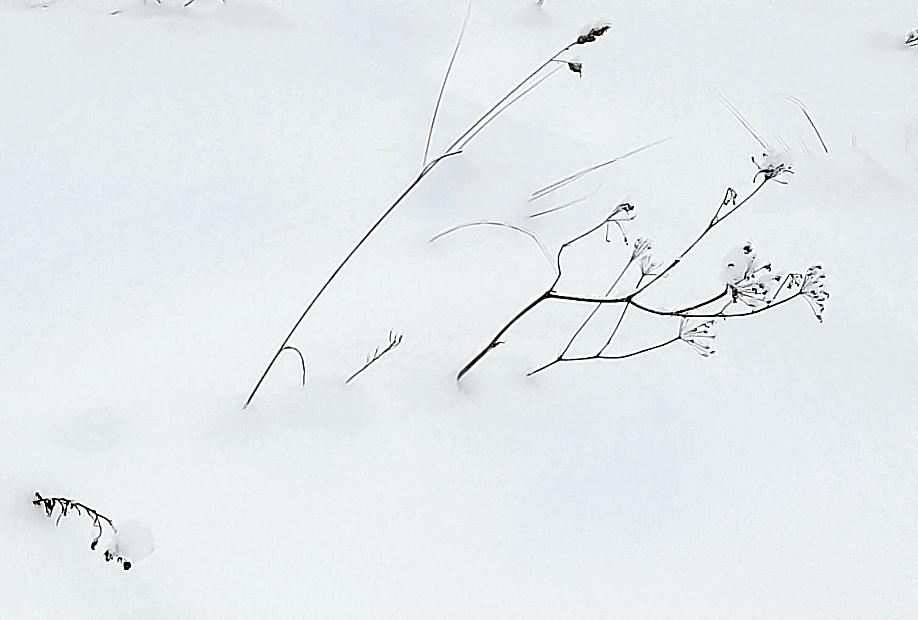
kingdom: Plantae
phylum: Tracheophyta
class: Liliopsida
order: Poales
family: Poaceae
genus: Dactylis
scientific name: Dactylis glomerata
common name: Orchardgrass
